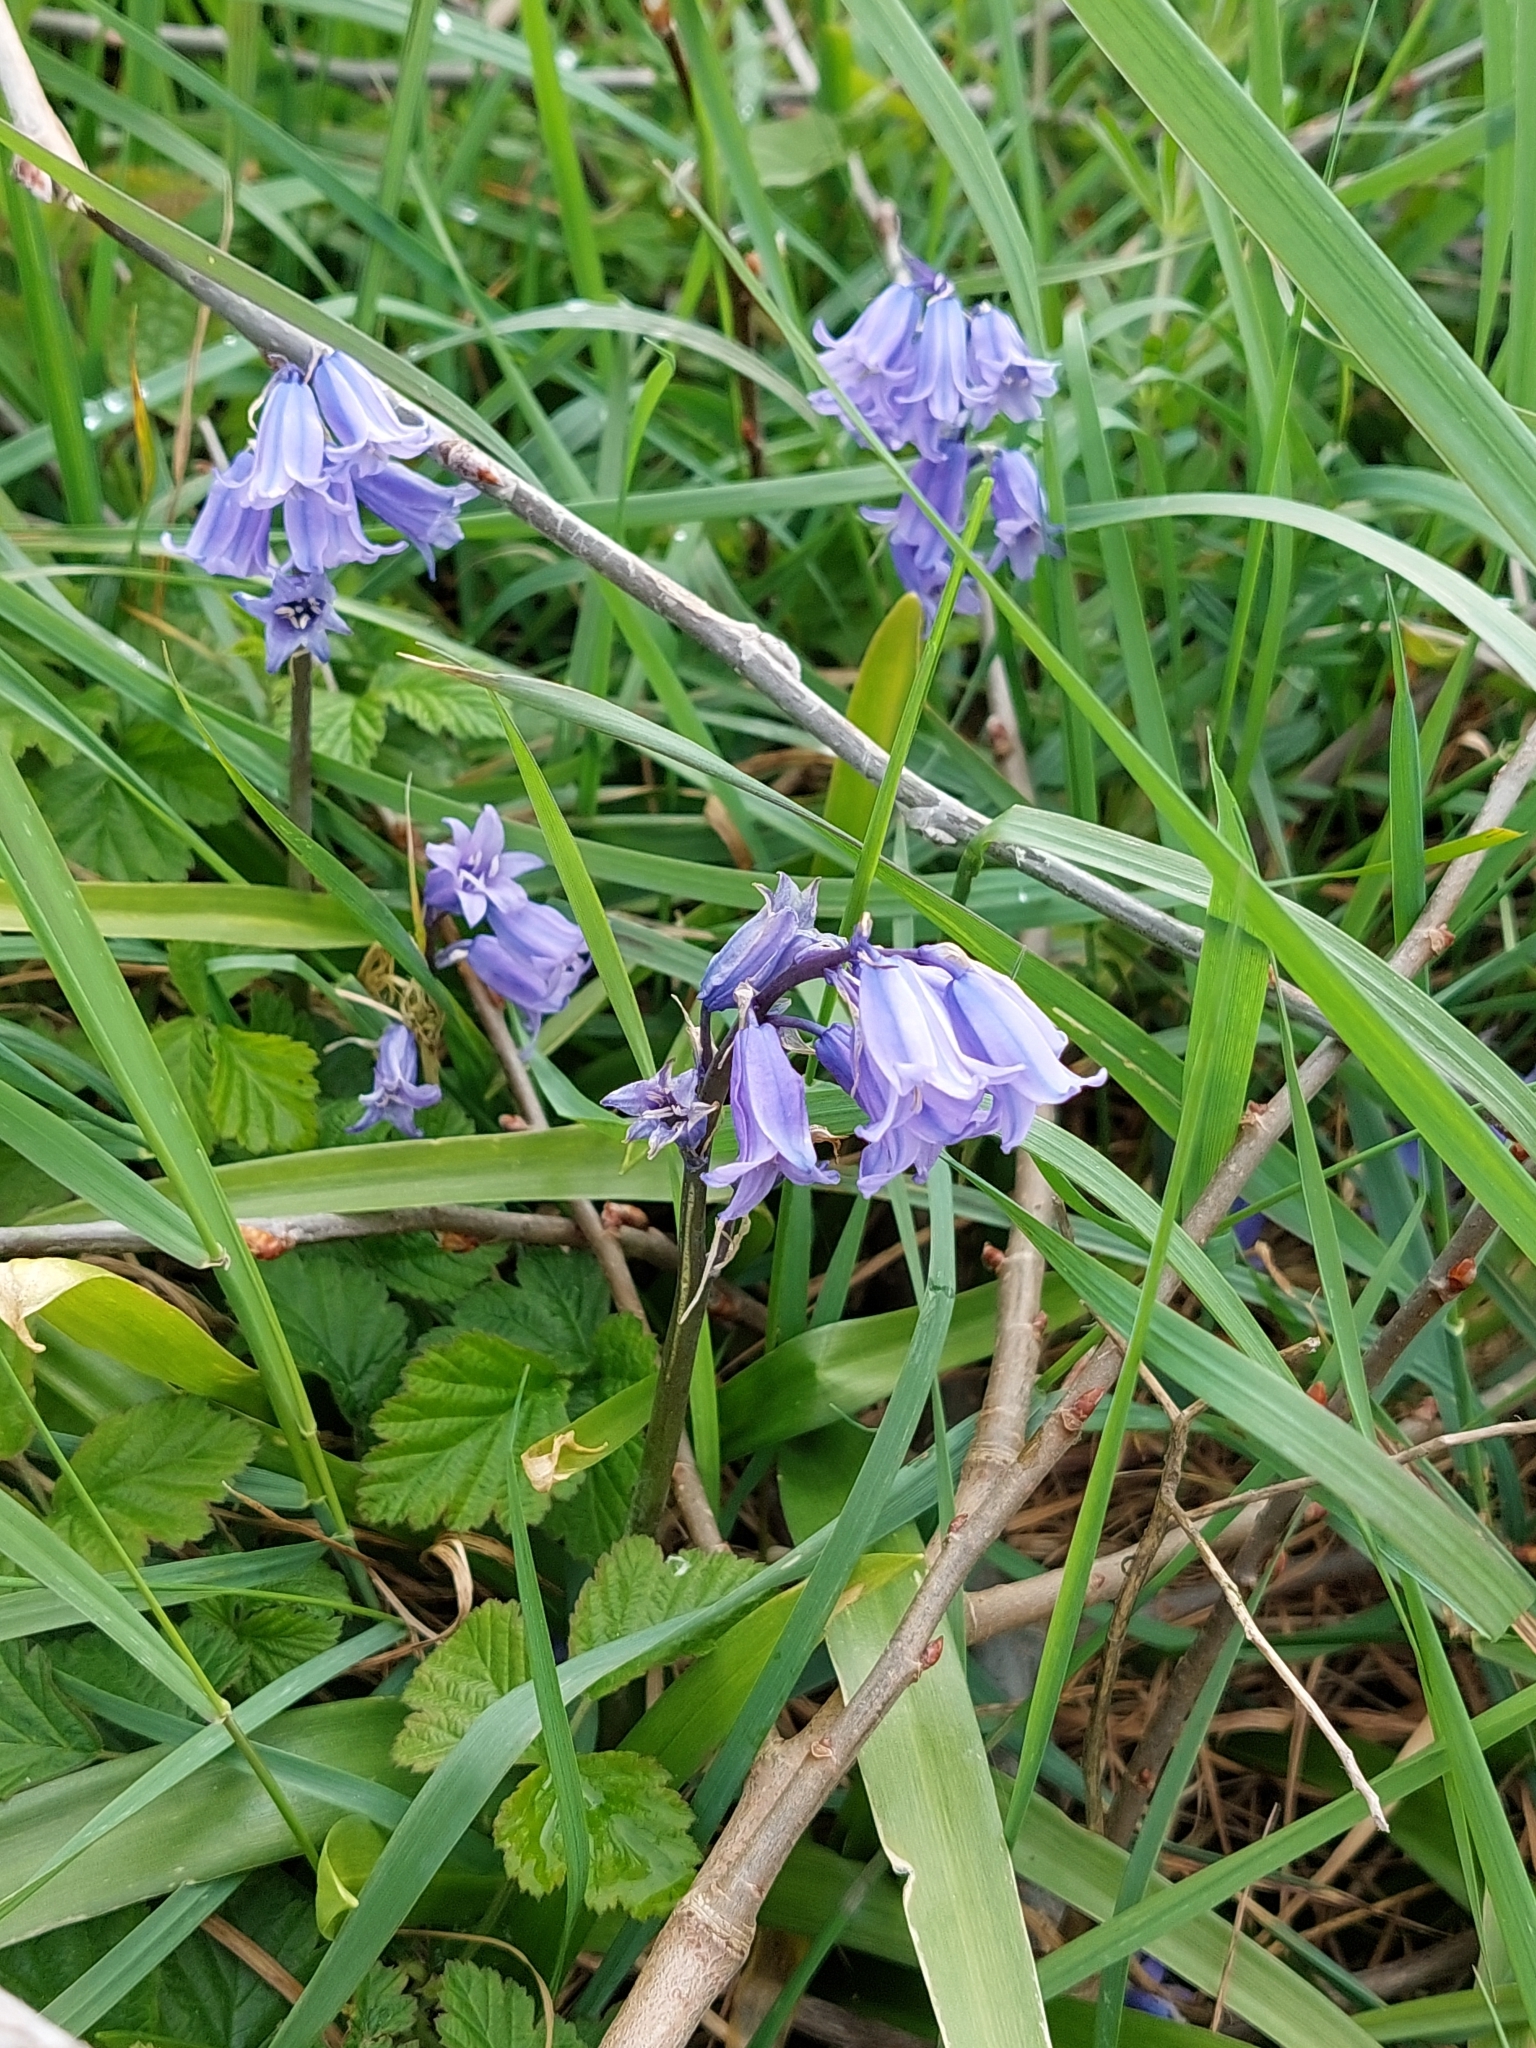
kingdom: Plantae
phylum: Tracheophyta
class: Liliopsida
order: Asparagales
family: Asparagaceae
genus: Hyacinthoides
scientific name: Hyacinthoides massartiana
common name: Hyacinthoides
